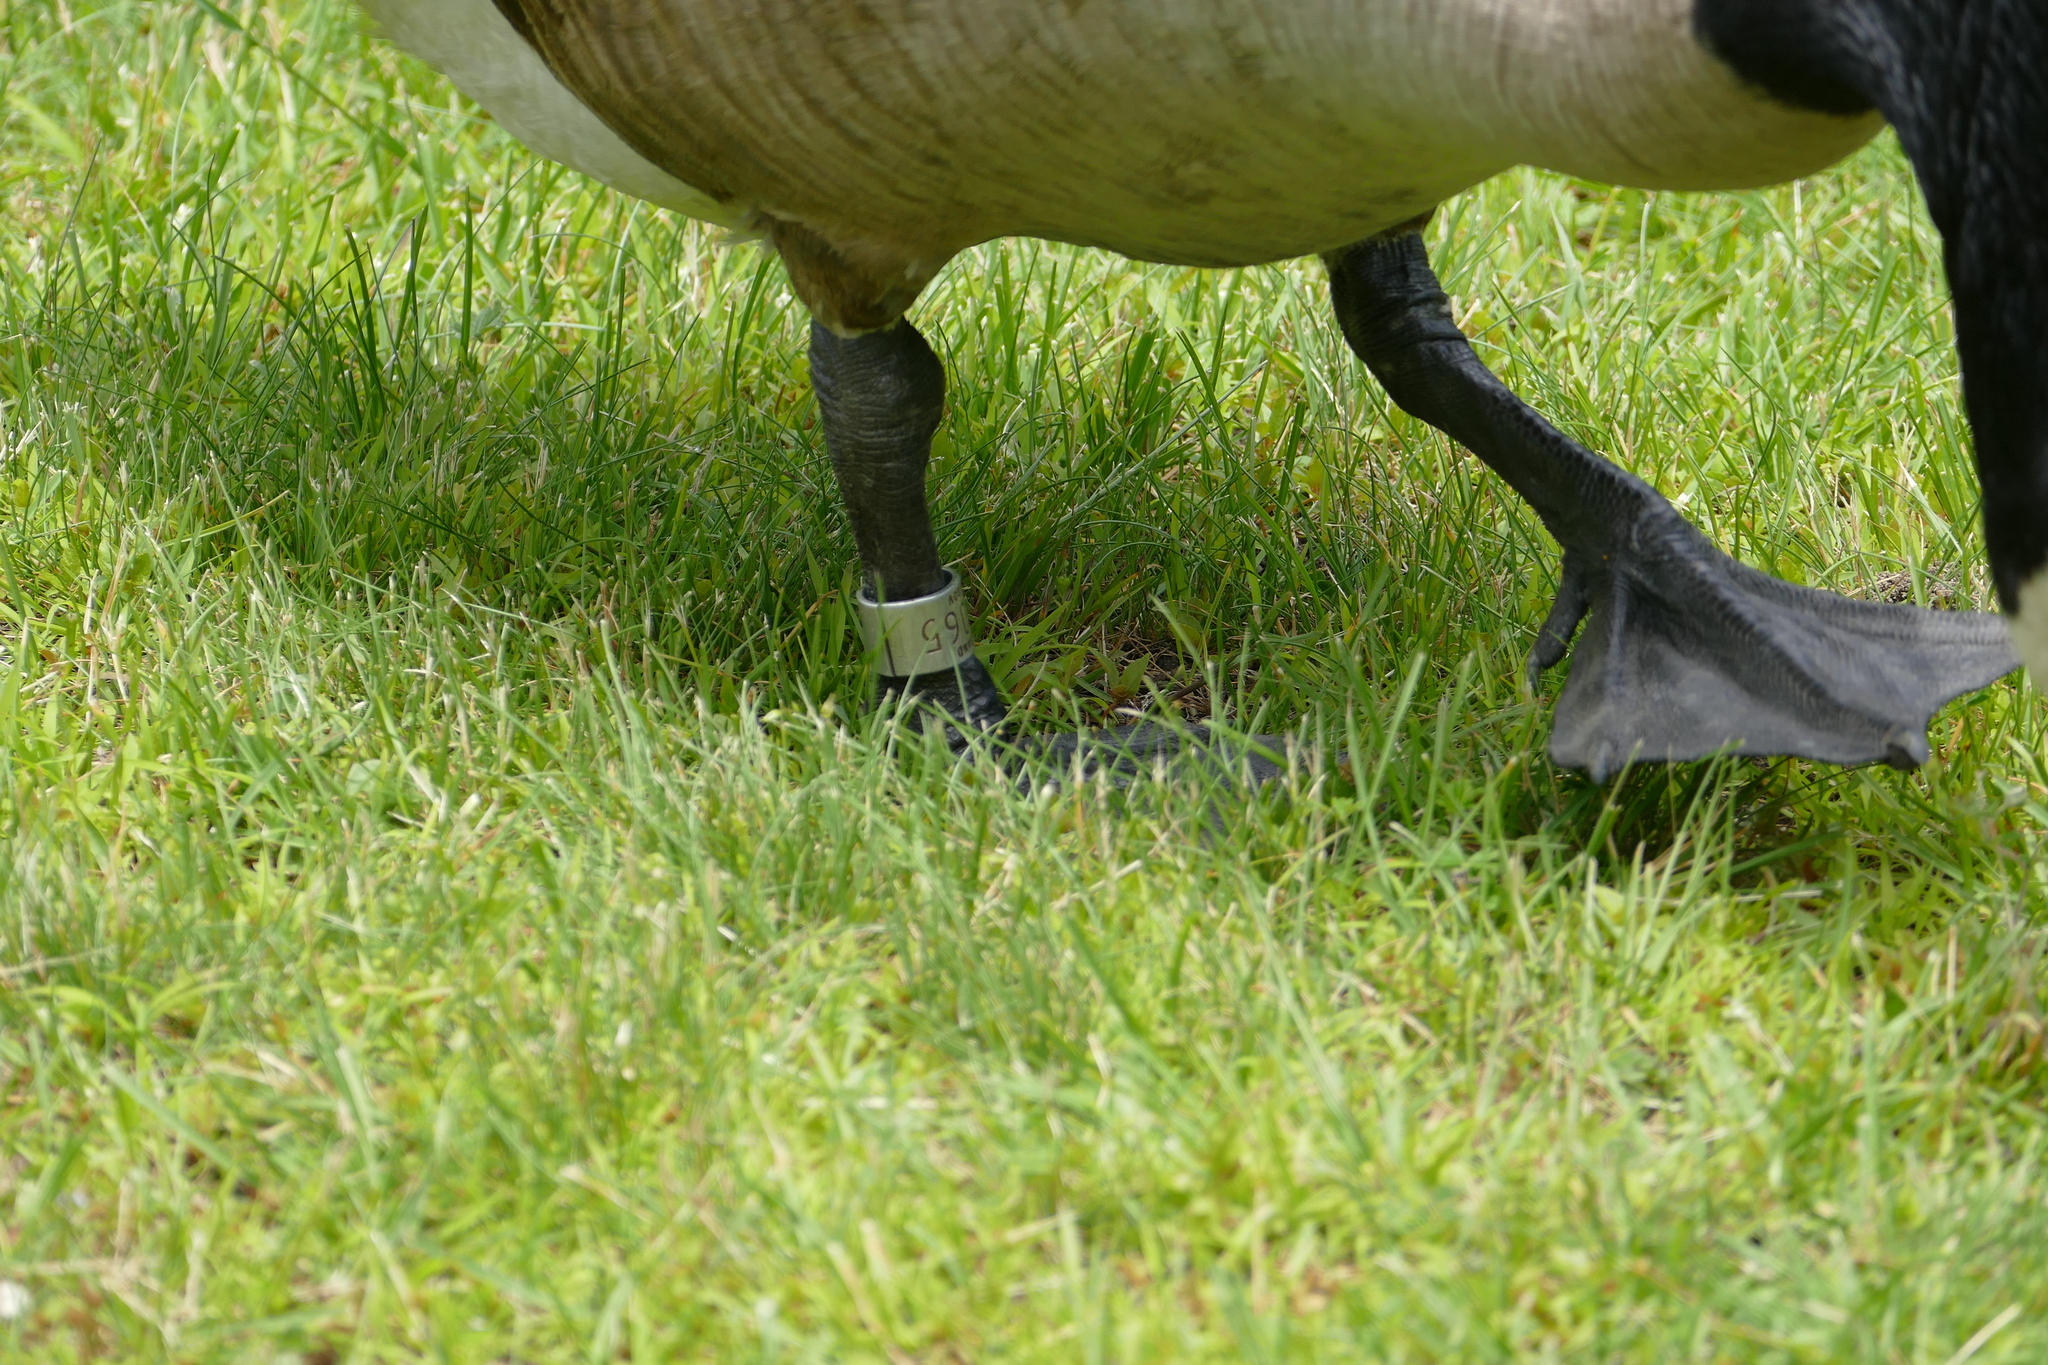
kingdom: Animalia
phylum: Chordata
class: Aves
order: Anseriformes
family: Anatidae
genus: Branta
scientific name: Branta canadensis
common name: Canada goose
